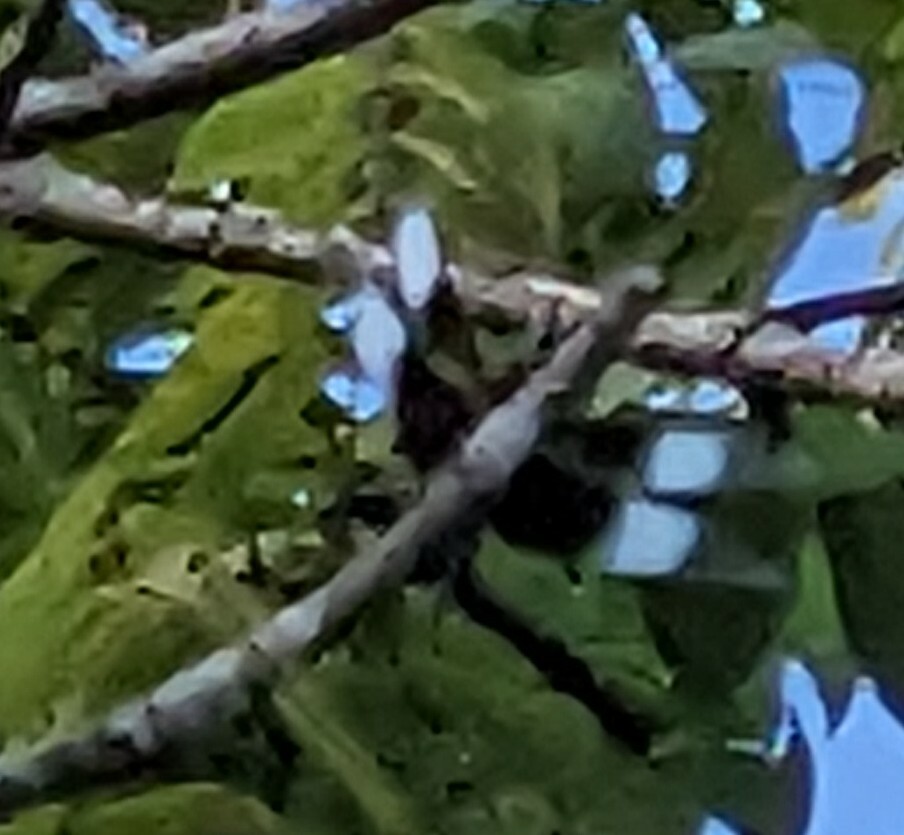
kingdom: Animalia
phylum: Arthropoda
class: Insecta
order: Odonata
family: Libellulidae
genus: Libellula
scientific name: Libellula luctuosa
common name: Widow skimmer
